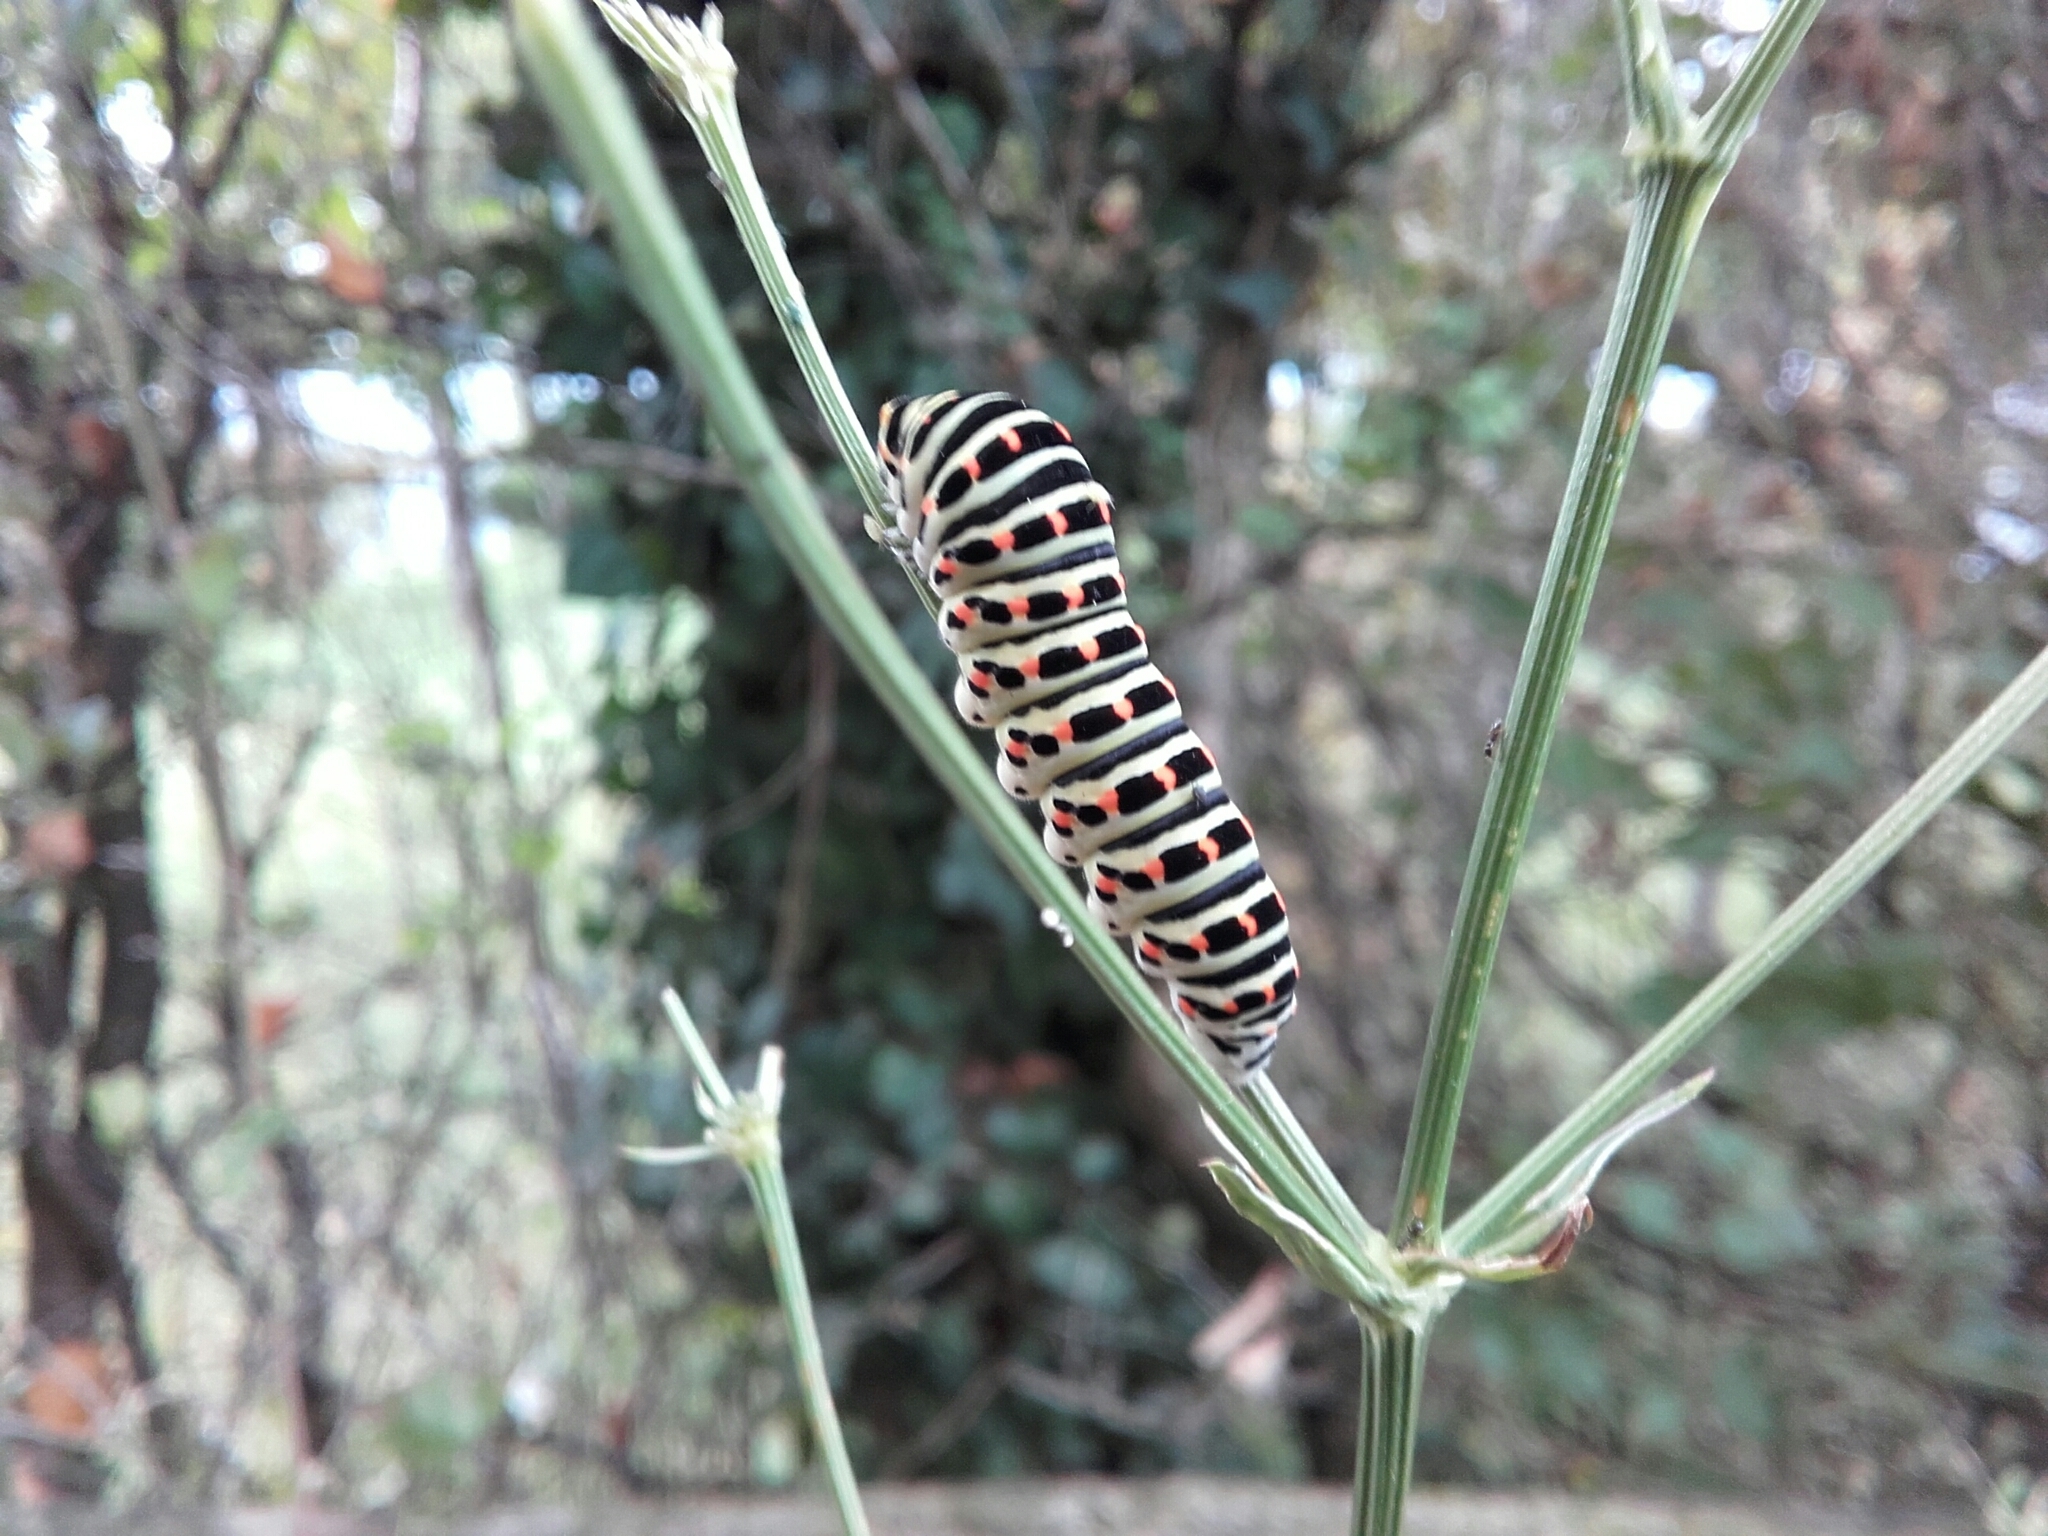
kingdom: Animalia
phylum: Arthropoda
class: Insecta
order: Lepidoptera
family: Papilionidae
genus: Papilio
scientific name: Papilio machaon
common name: Swallowtail
